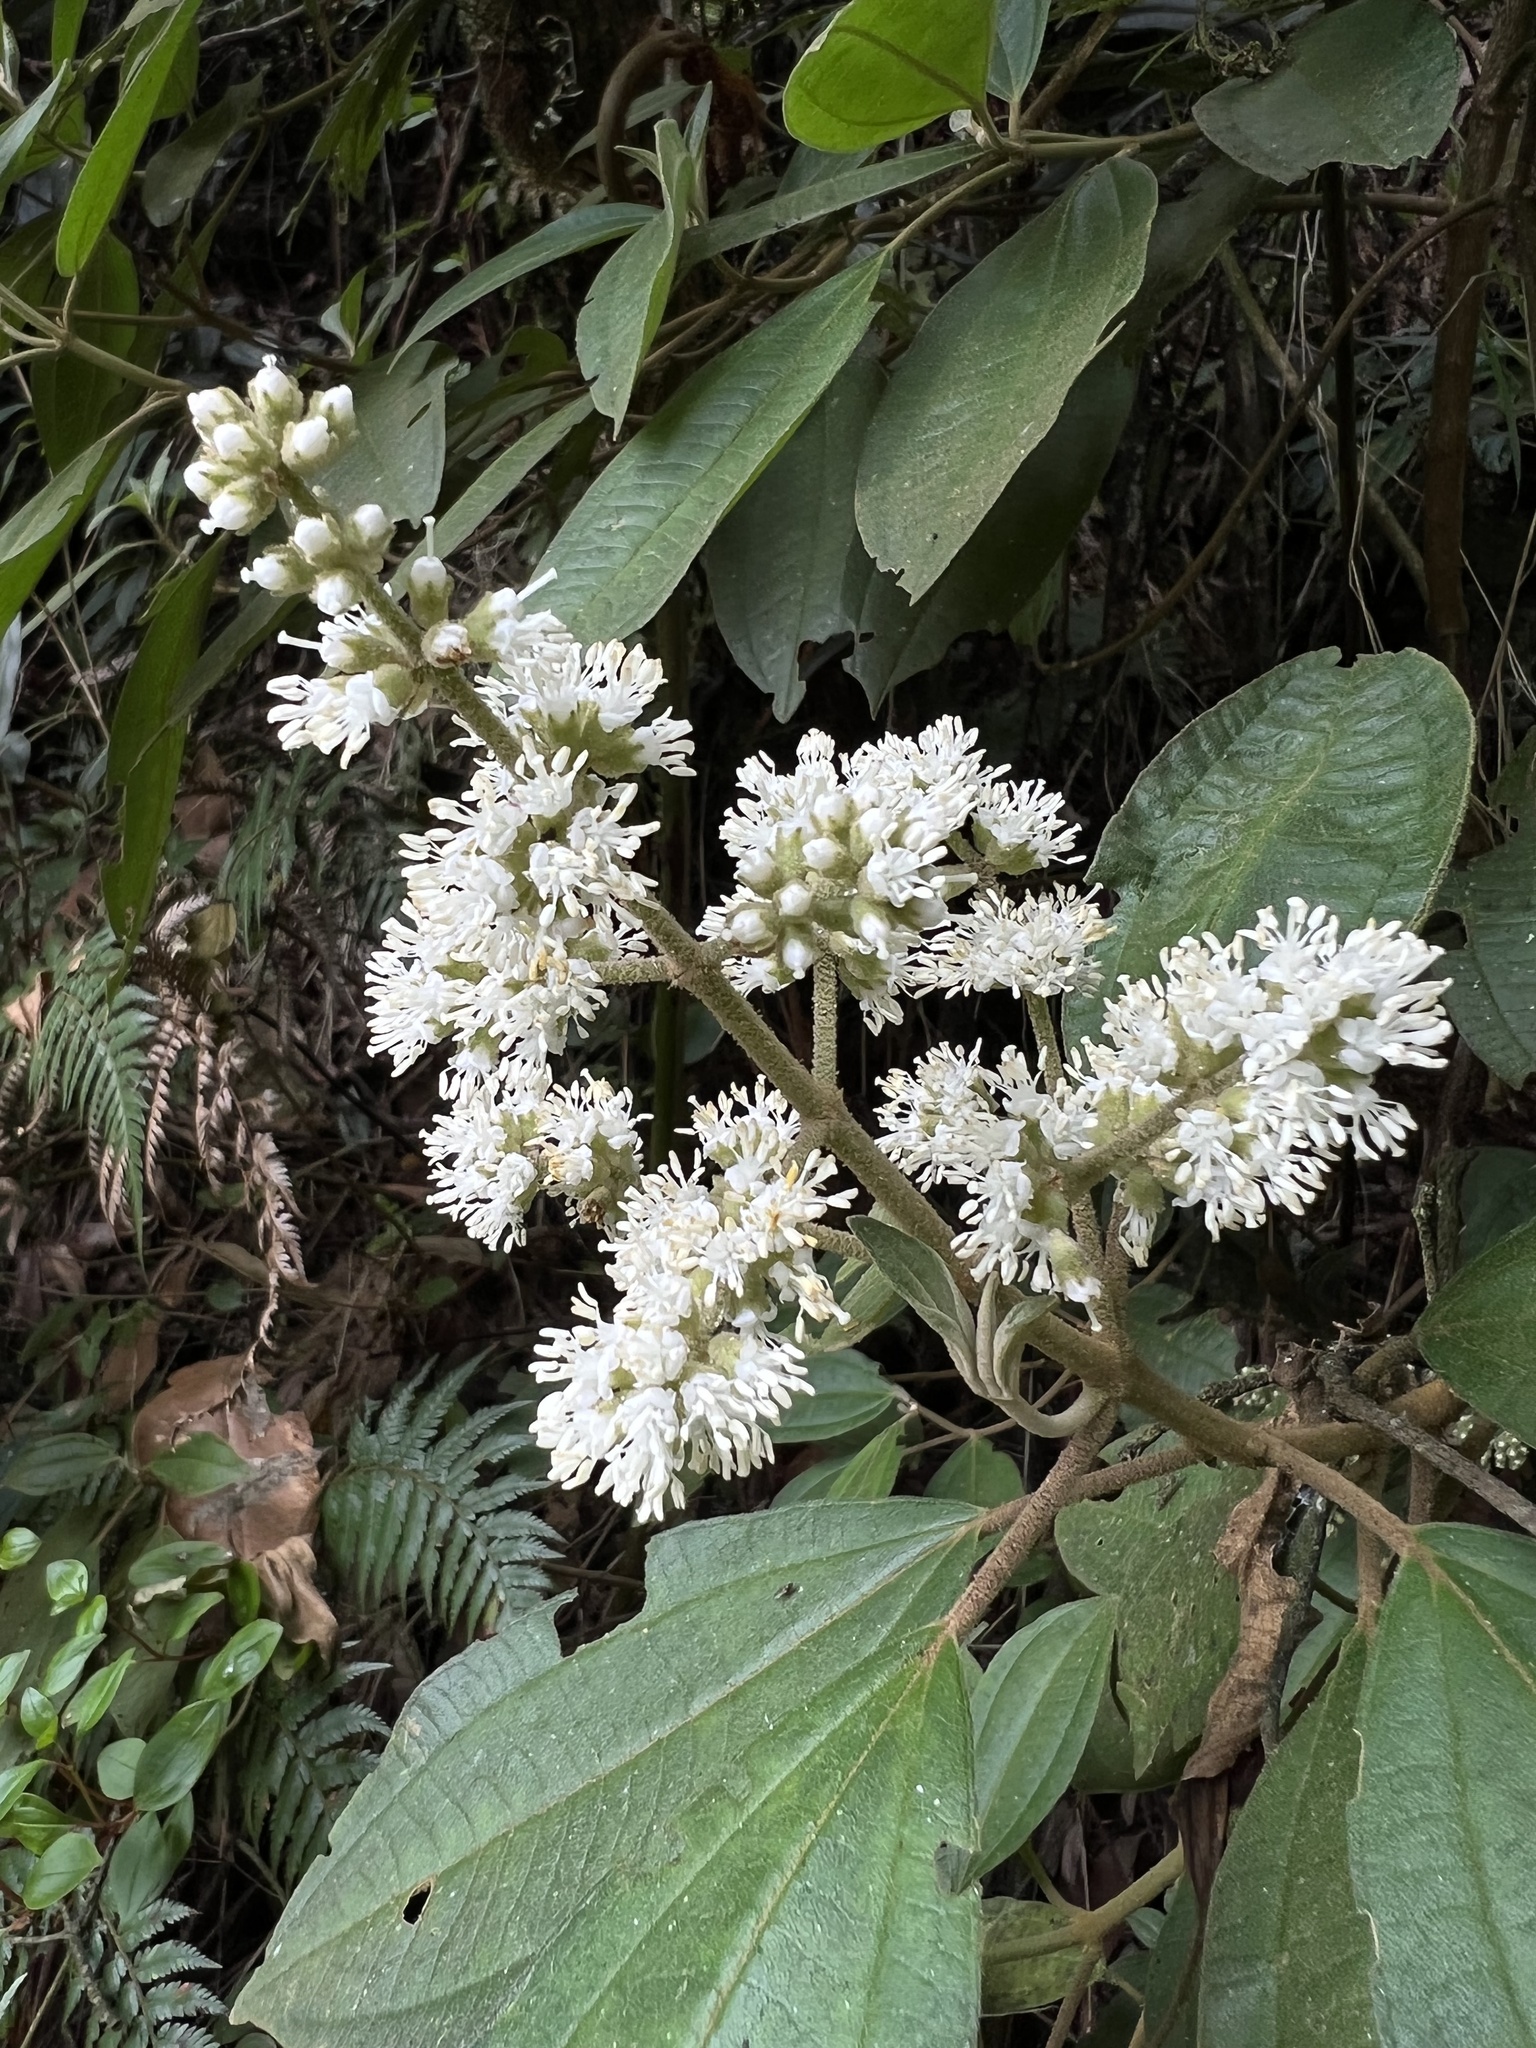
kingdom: Plantae
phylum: Tracheophyta
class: Magnoliopsida
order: Myrtales
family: Melastomataceae
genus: Miconia
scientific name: Miconia cataractae
